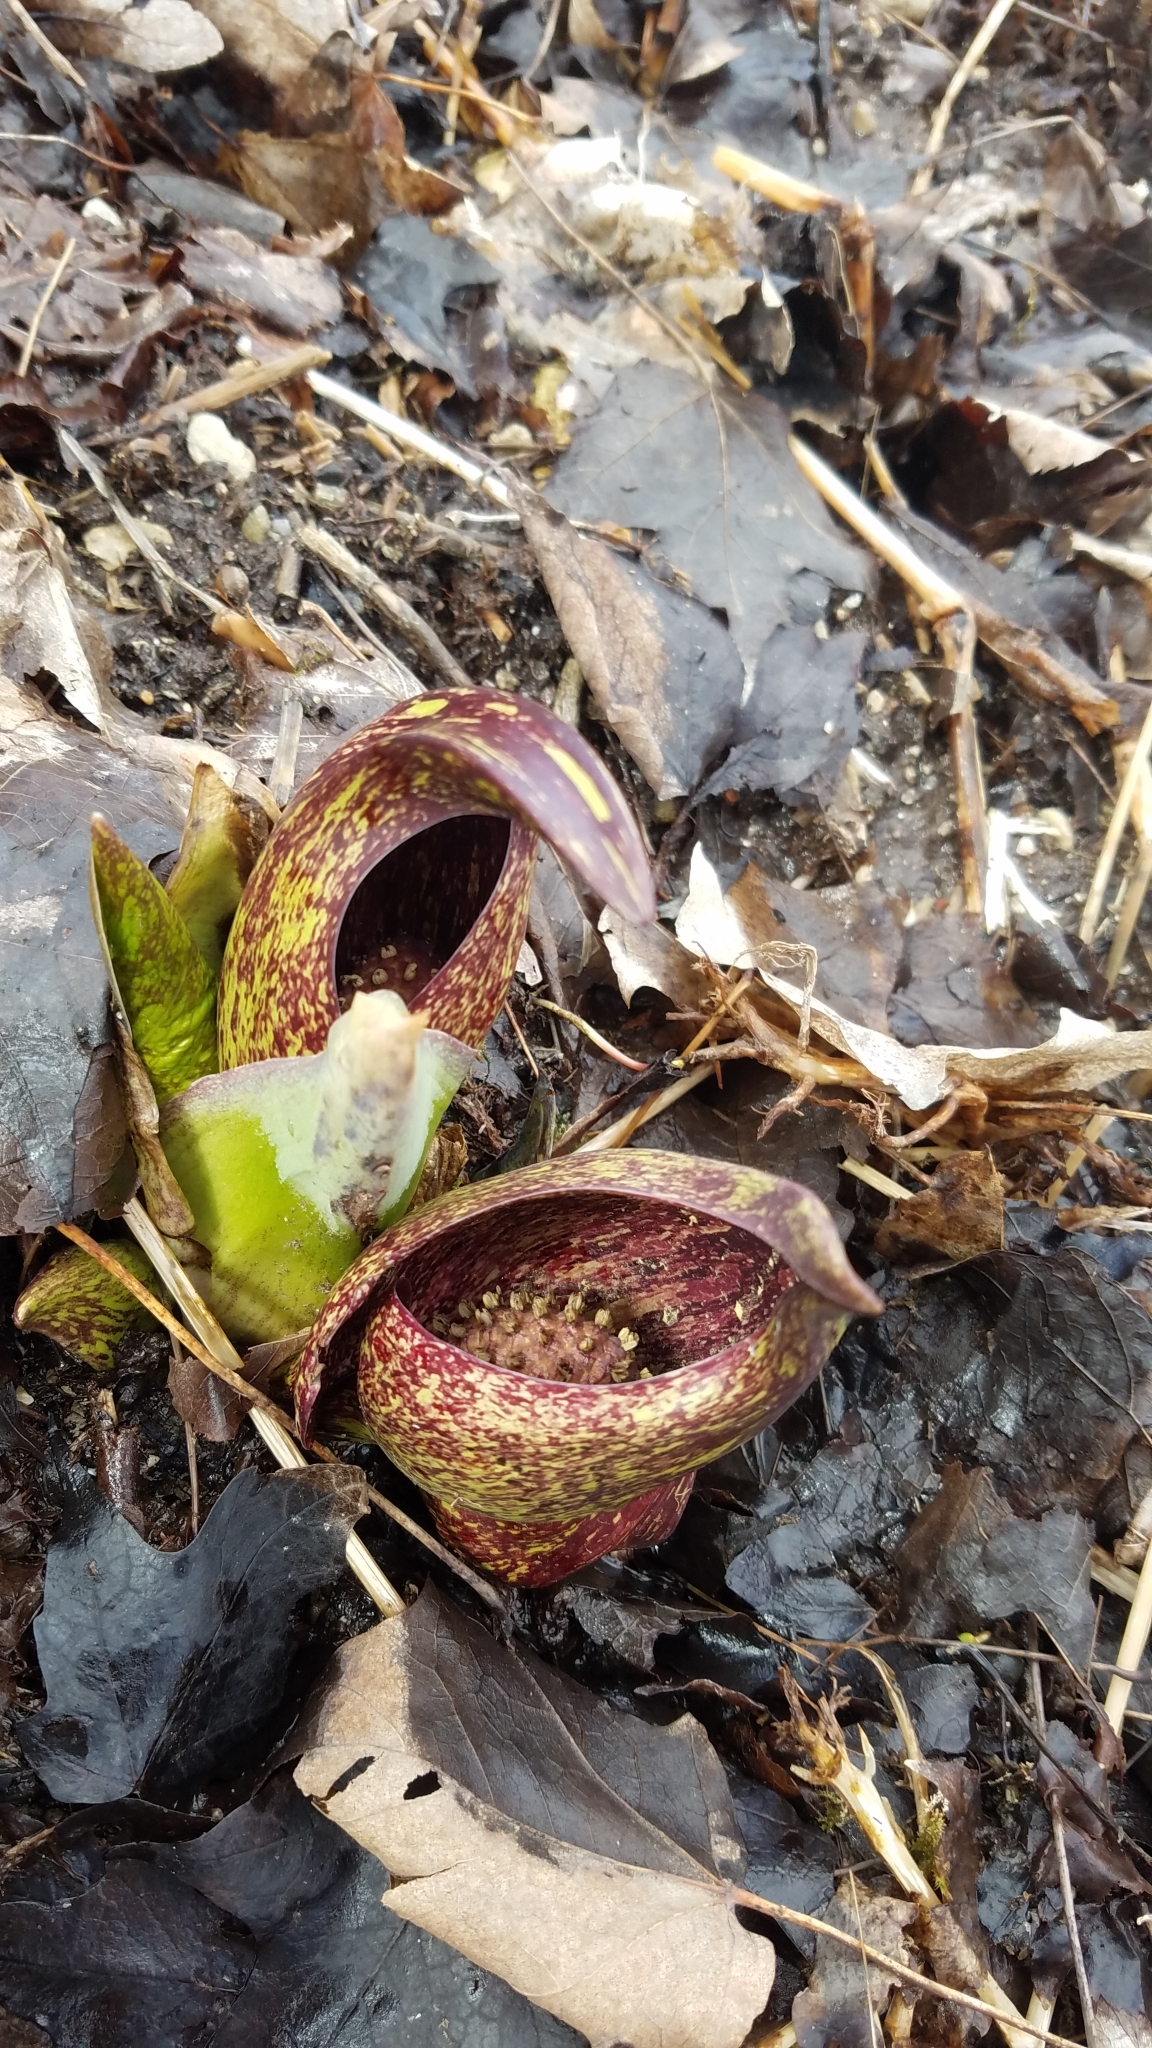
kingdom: Plantae
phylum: Tracheophyta
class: Liliopsida
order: Alismatales
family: Araceae
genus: Symplocarpus
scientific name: Symplocarpus foetidus
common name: Eastern skunk cabbage
